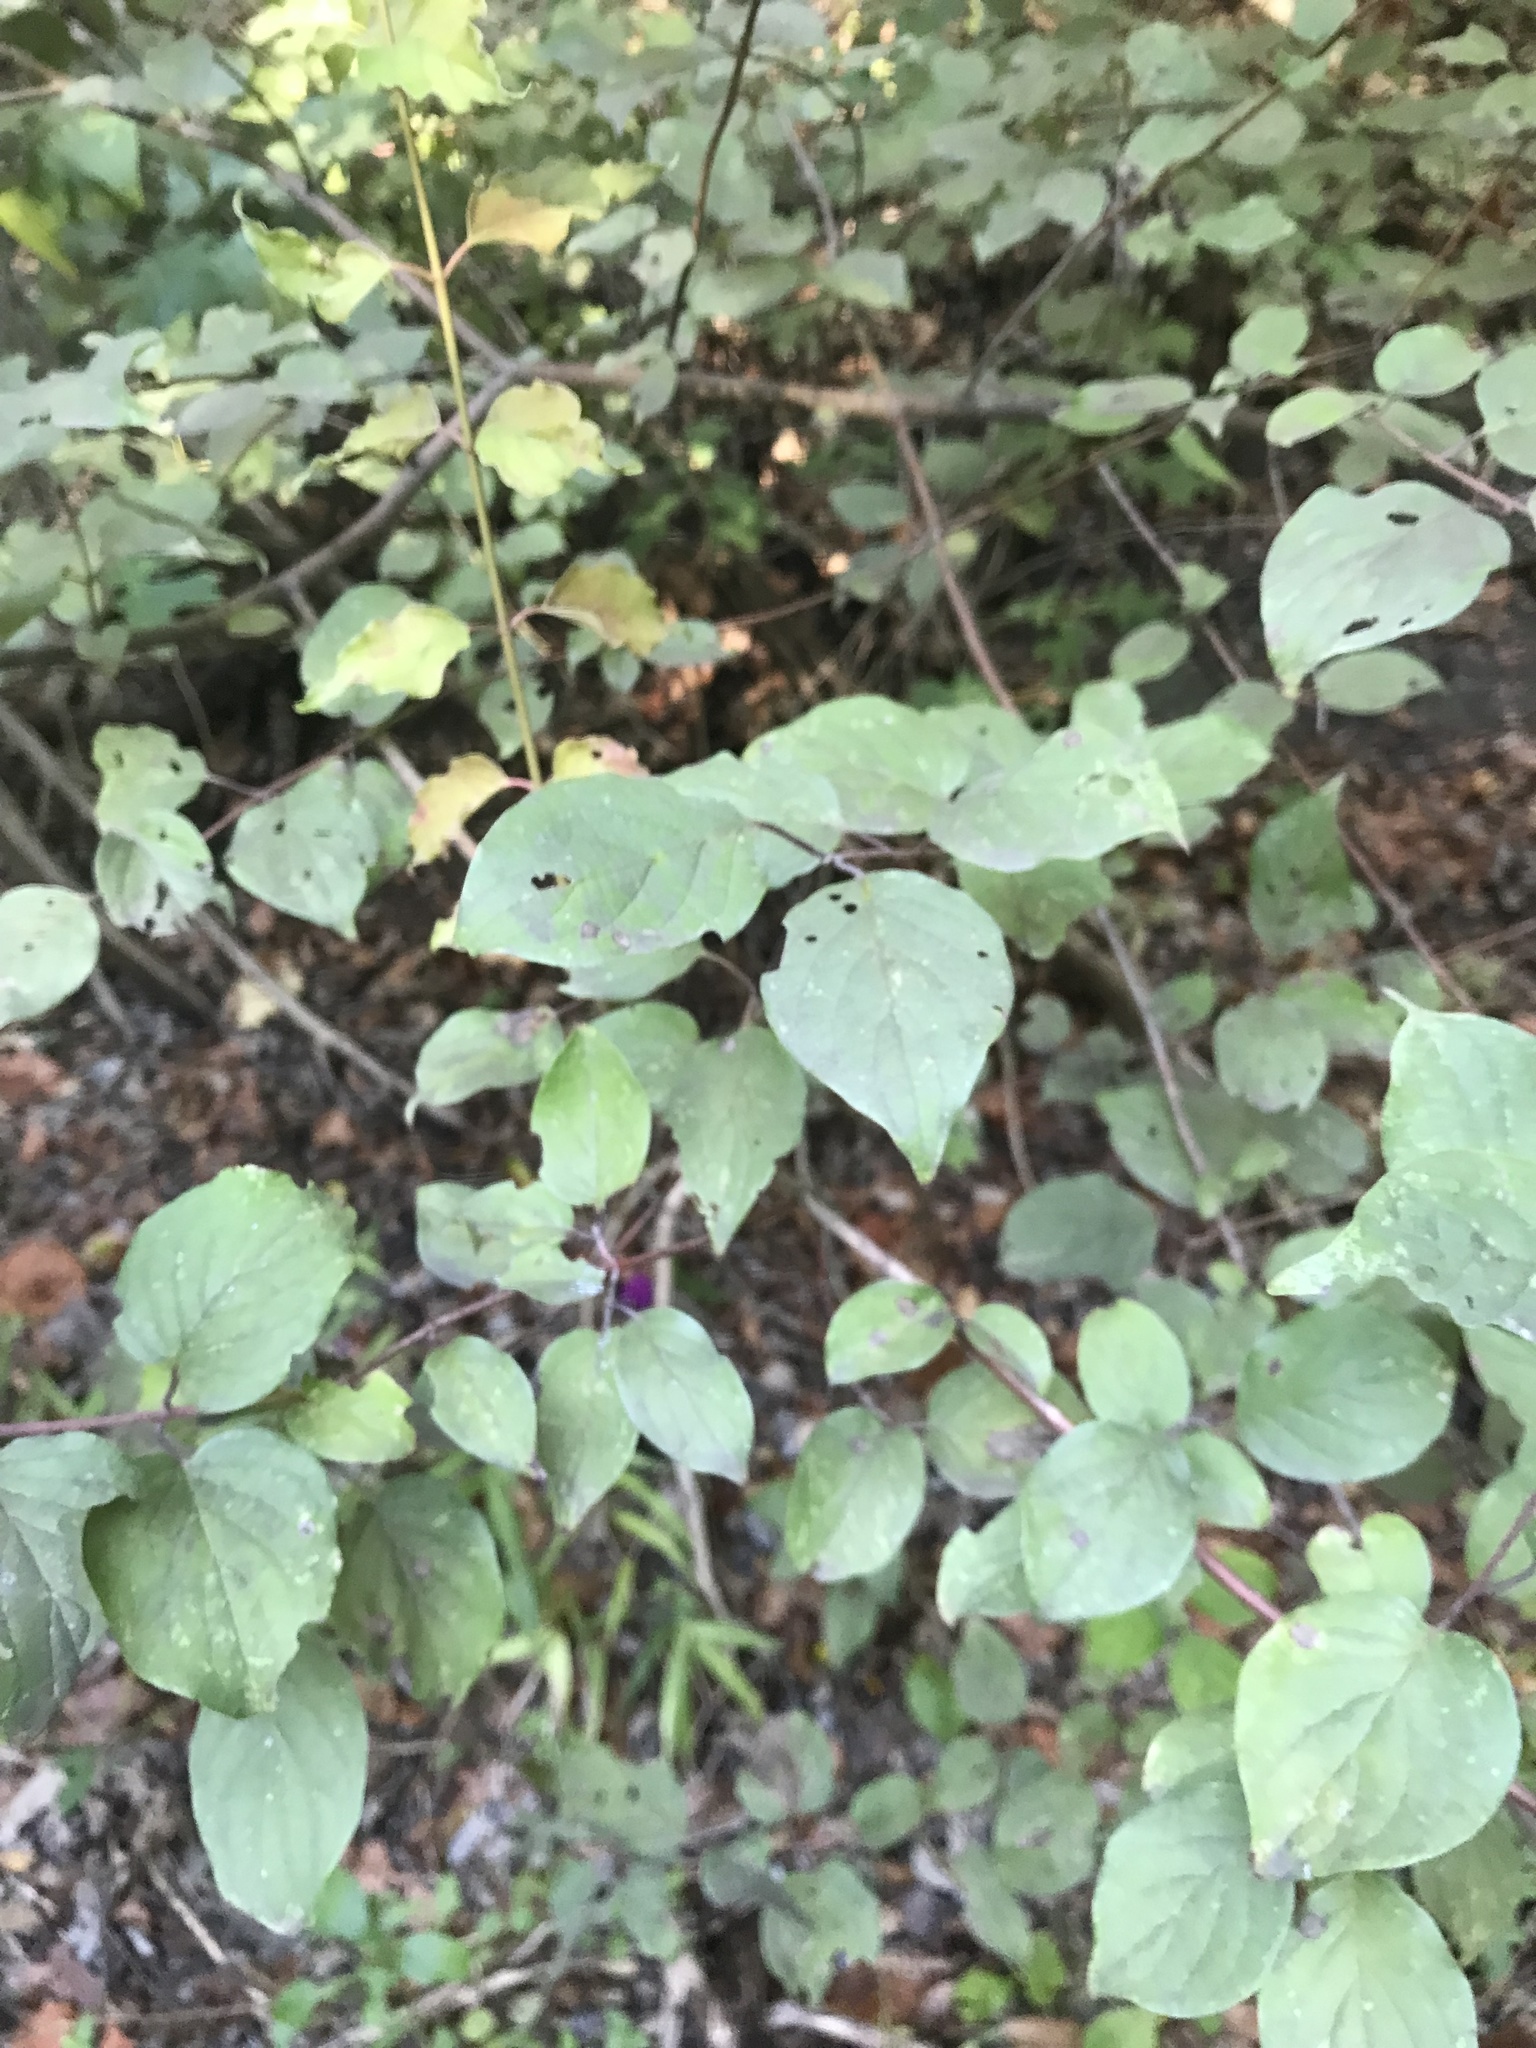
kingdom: Plantae
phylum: Tracheophyta
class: Magnoliopsida
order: Cornales
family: Cornaceae
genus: Cornus
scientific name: Cornus drummondii
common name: Rough-leaf dogwood
